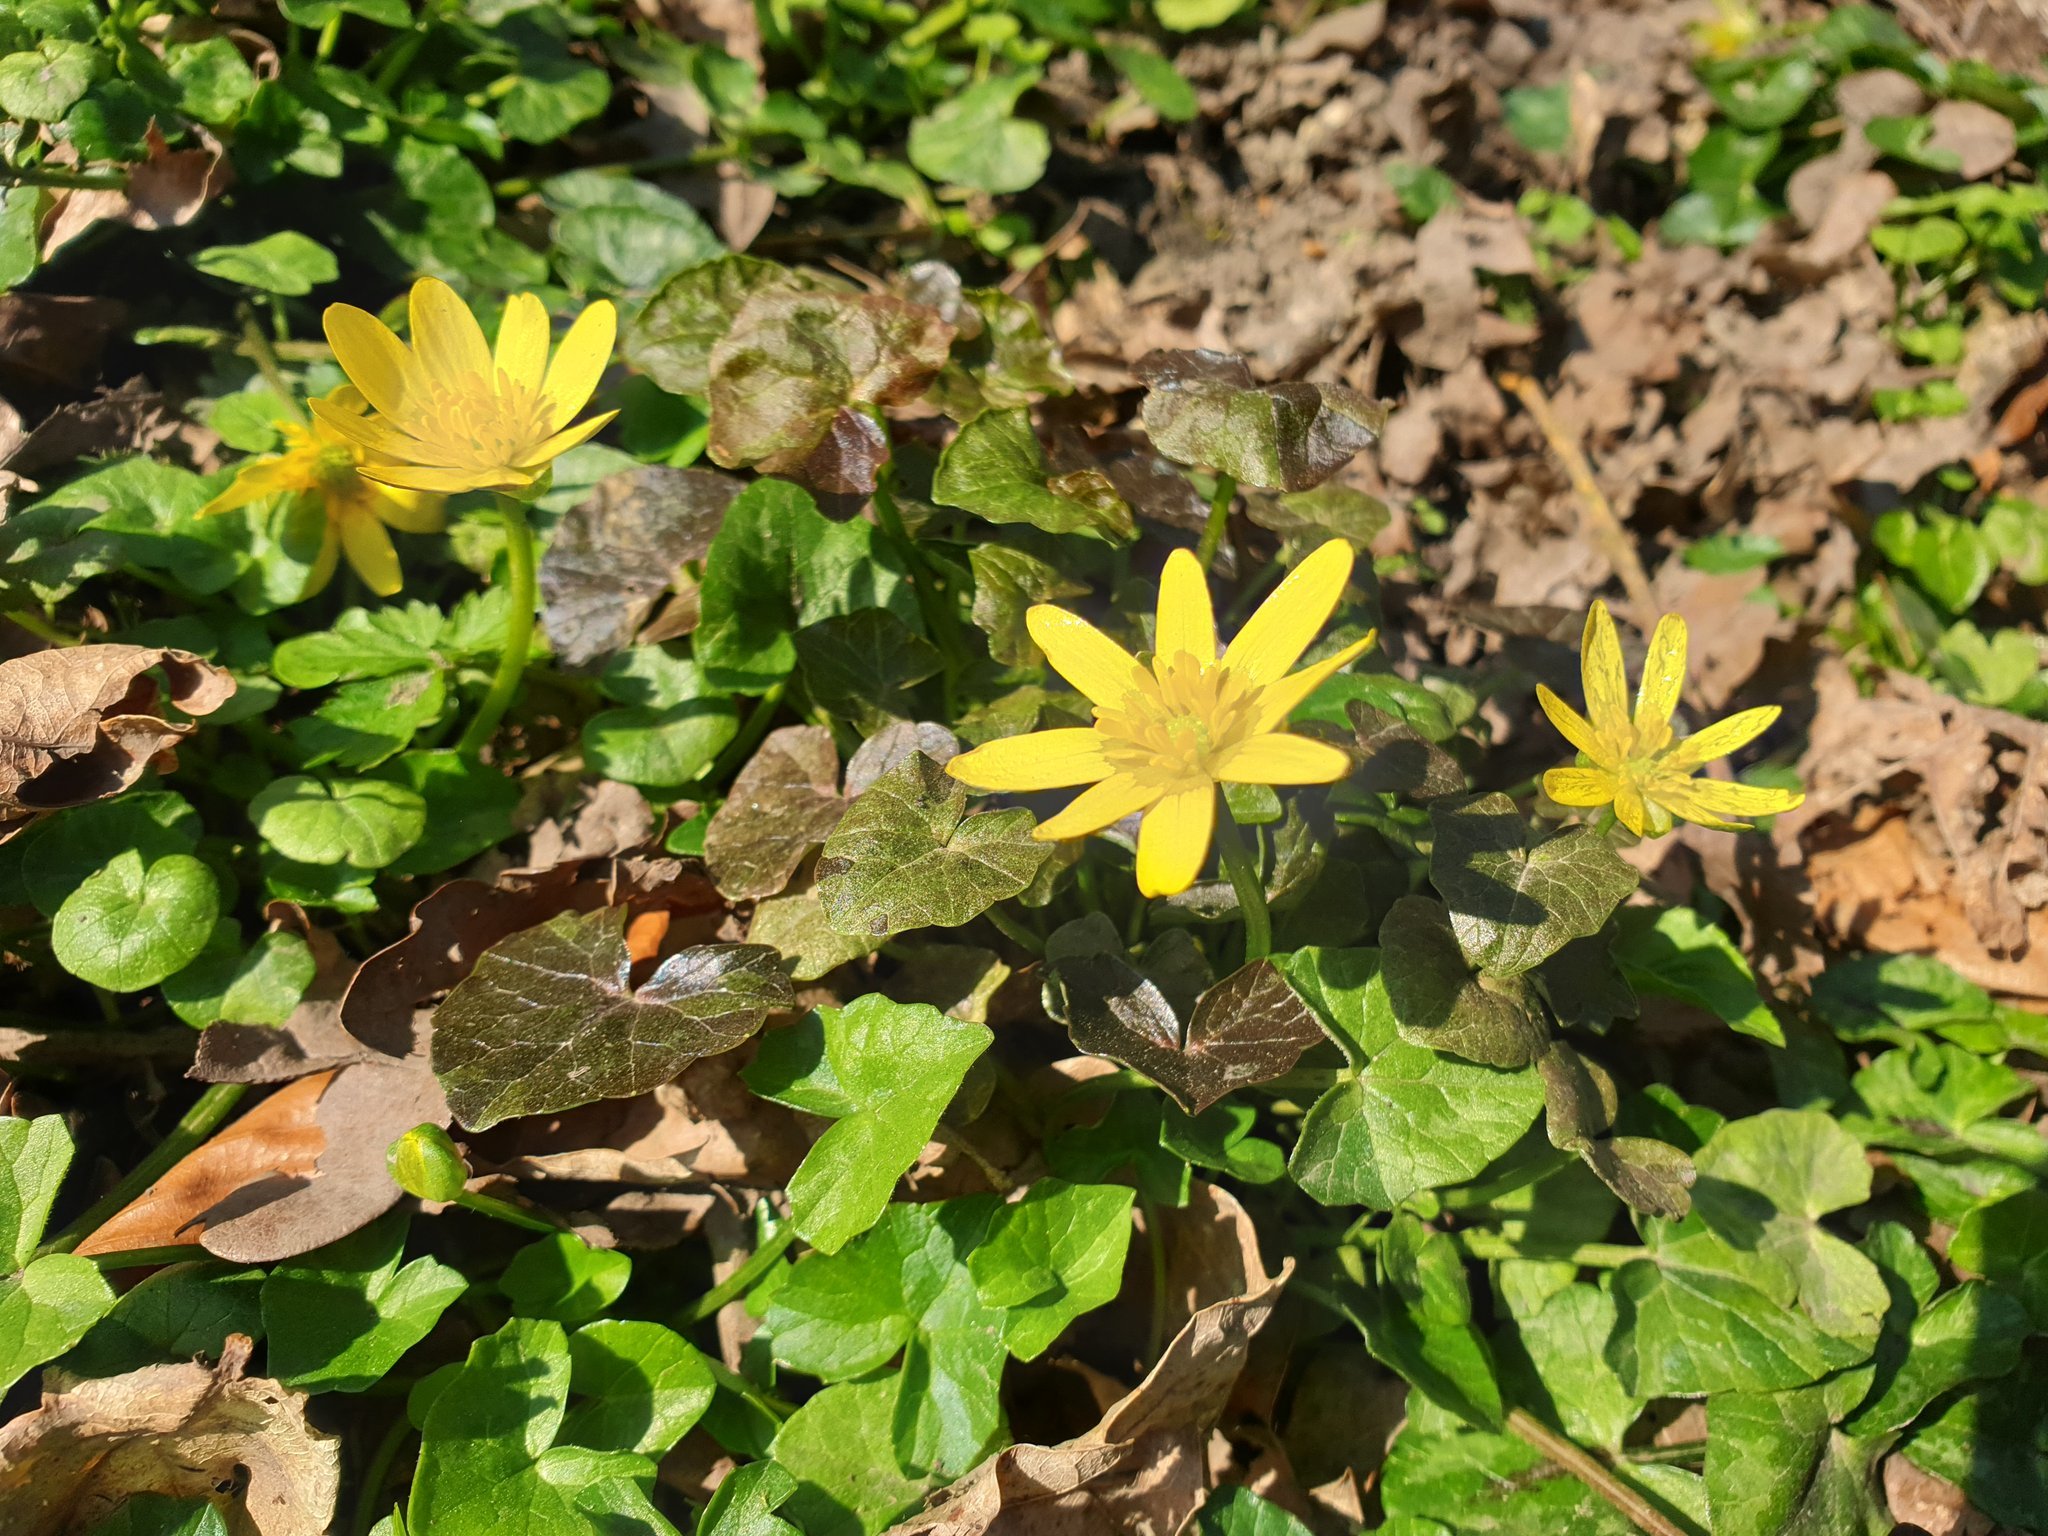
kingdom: Plantae
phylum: Tracheophyta
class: Magnoliopsida
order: Ranunculales
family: Ranunculaceae
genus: Ficaria
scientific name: Ficaria verna
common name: Lesser celandine
